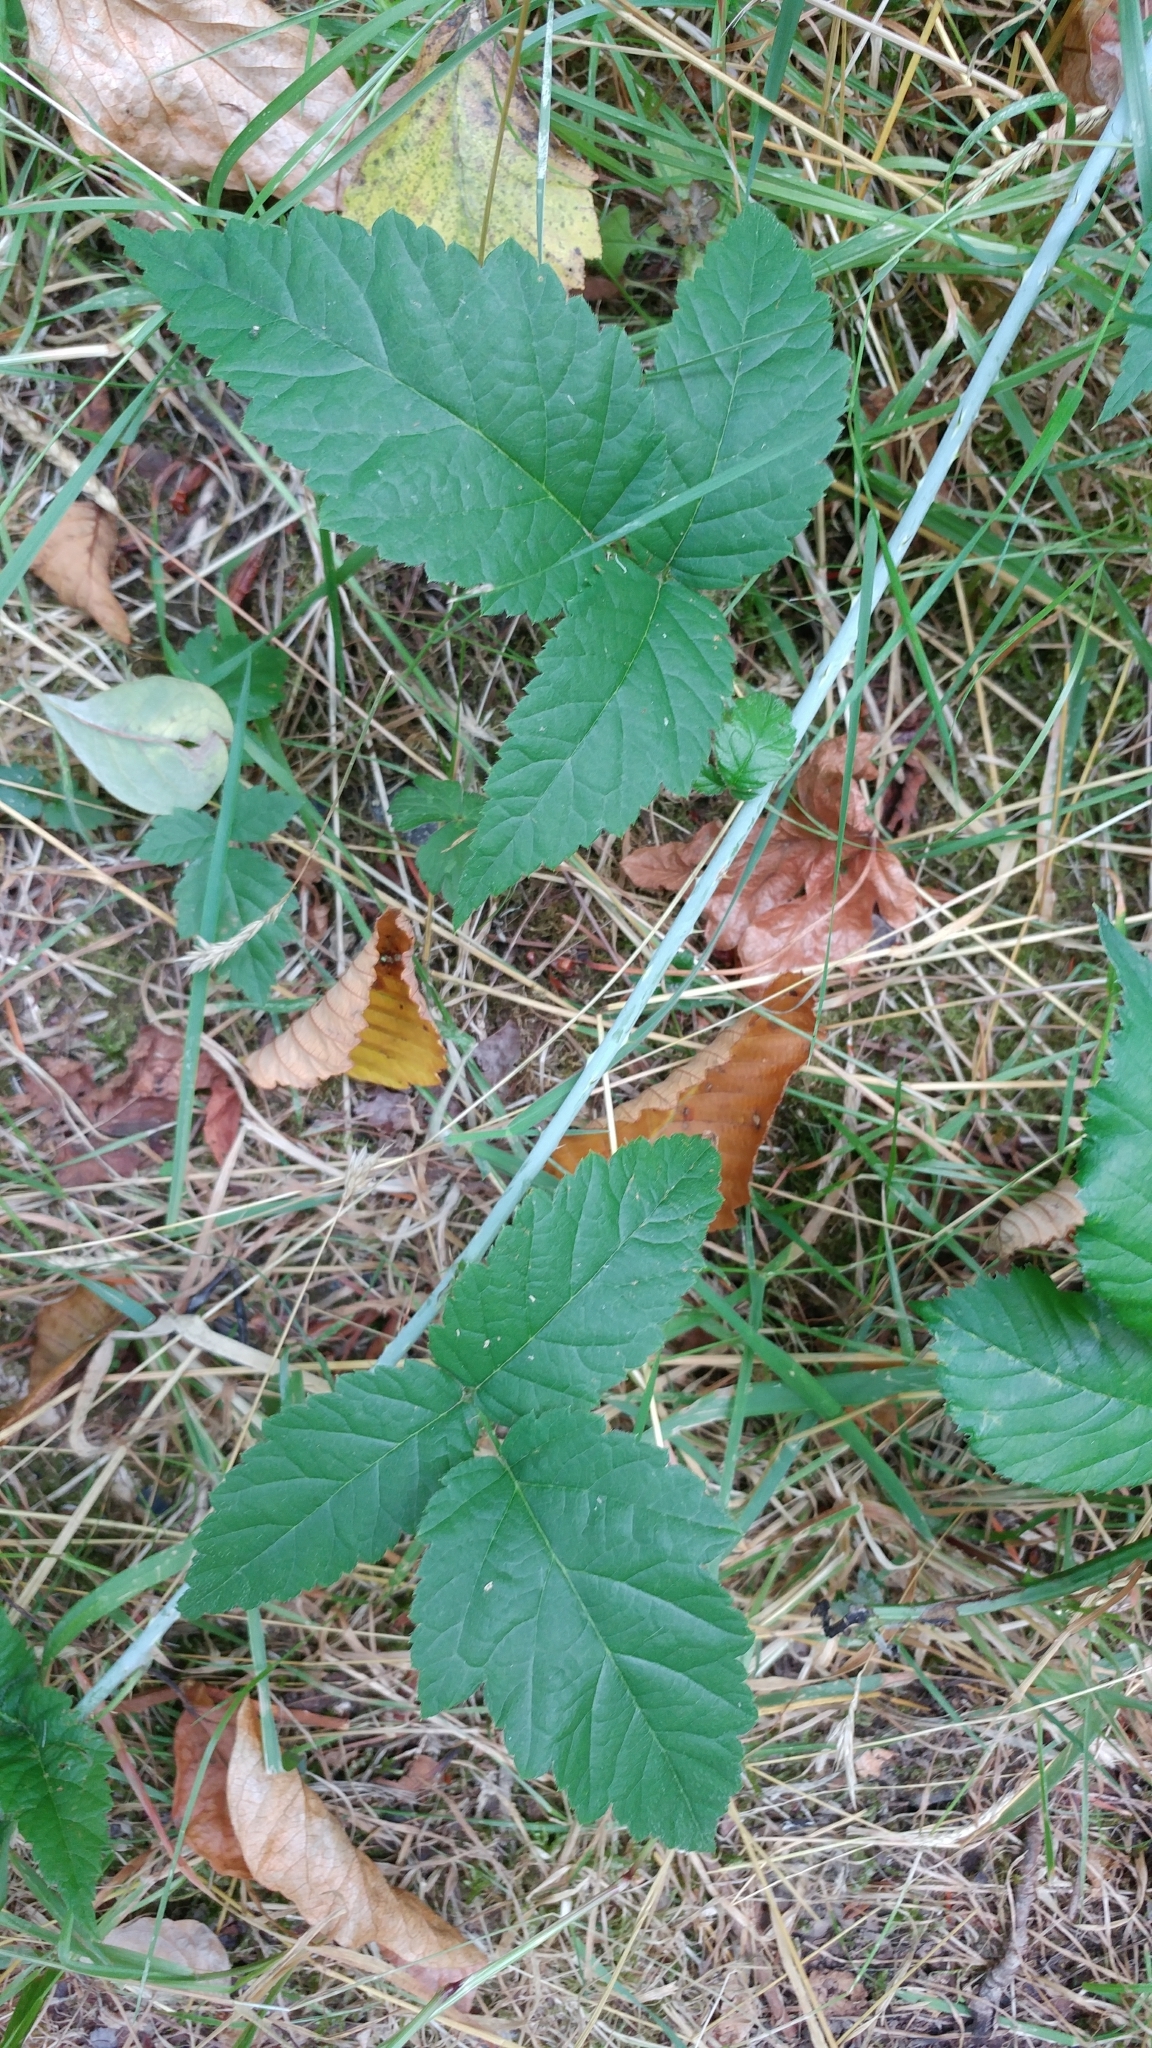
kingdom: Plantae
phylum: Tracheophyta
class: Magnoliopsida
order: Rosales
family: Rosaceae
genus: Rubus
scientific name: Rubus ursinus
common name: Pacific blackberry
